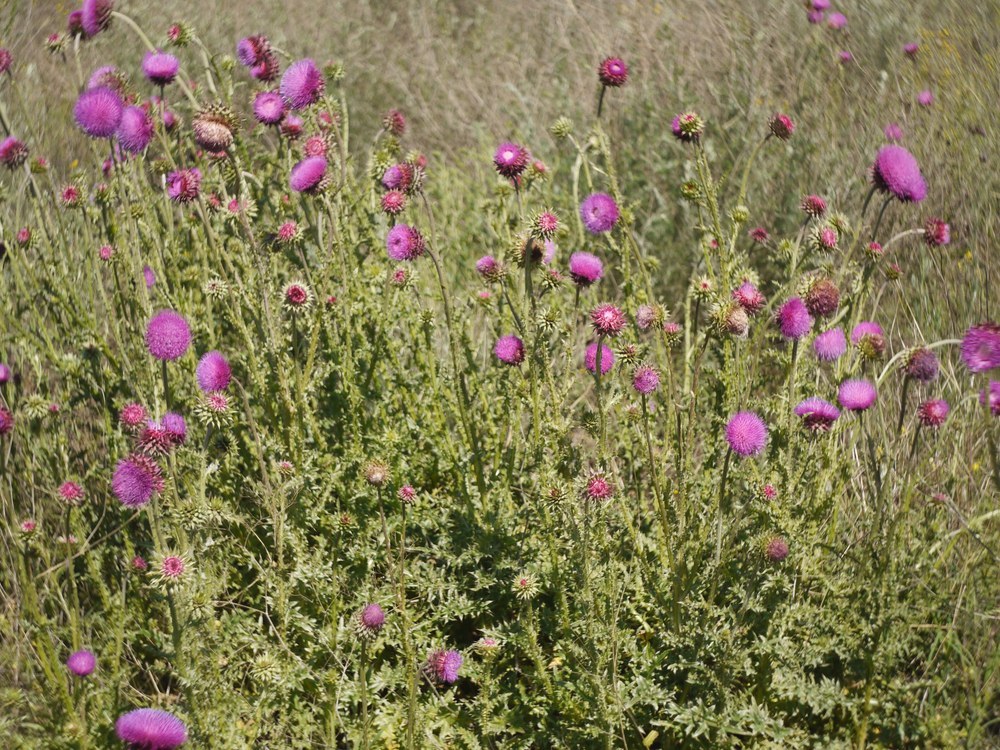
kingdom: Plantae
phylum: Tracheophyta
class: Magnoliopsida
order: Asterales
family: Asteraceae
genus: Carduus
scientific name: Carduus nutans
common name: Musk thistle
